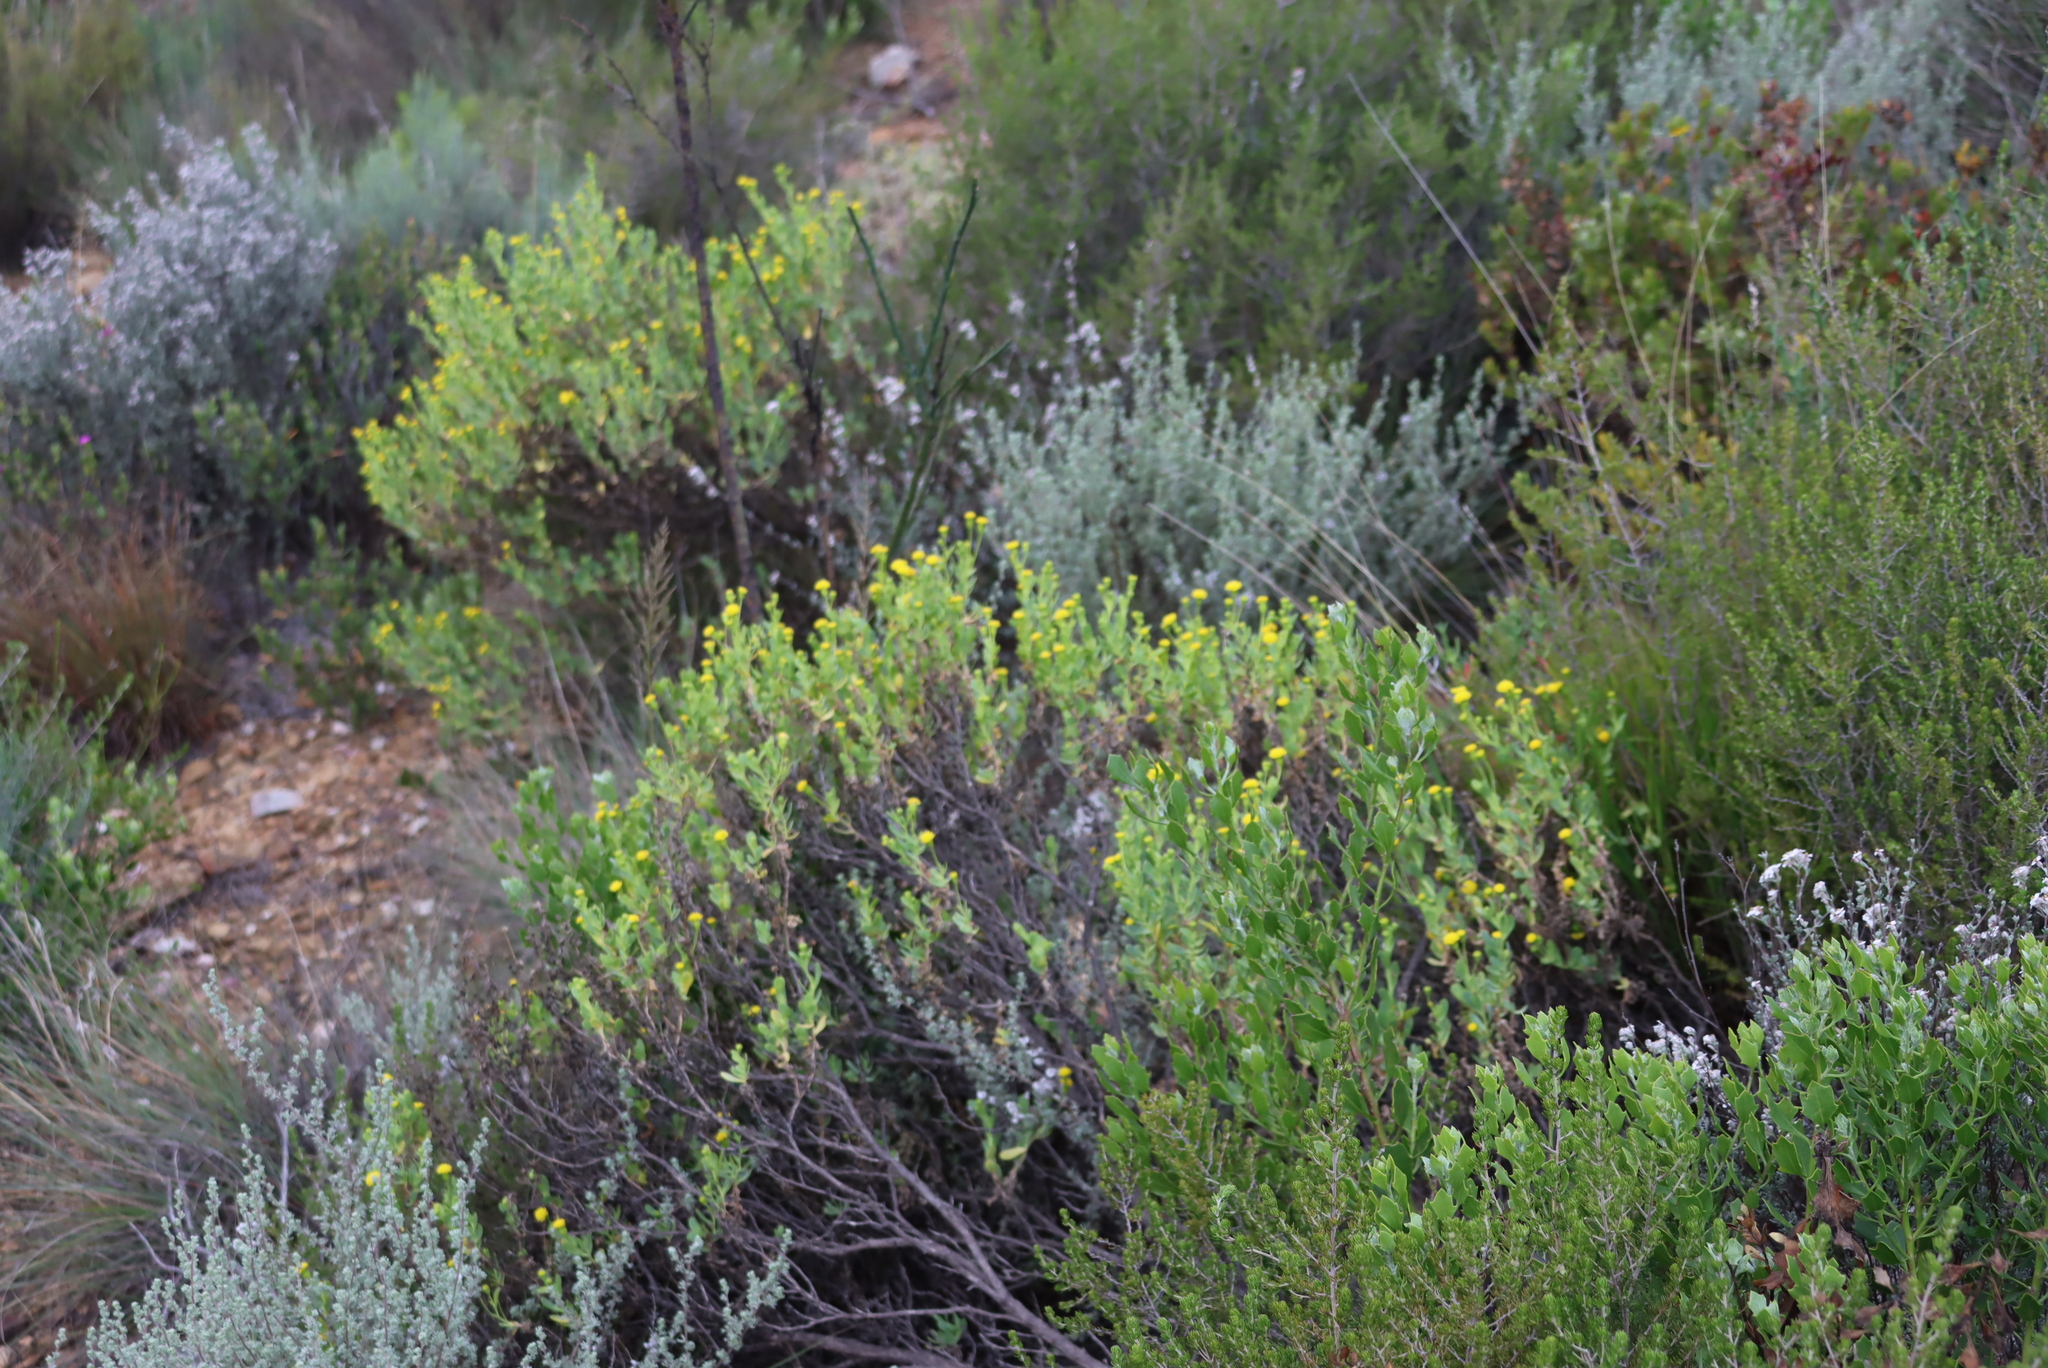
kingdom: Plantae
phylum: Tracheophyta
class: Magnoliopsida
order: Asterales
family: Asteraceae
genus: Hertia
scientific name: Hertia kraussii
